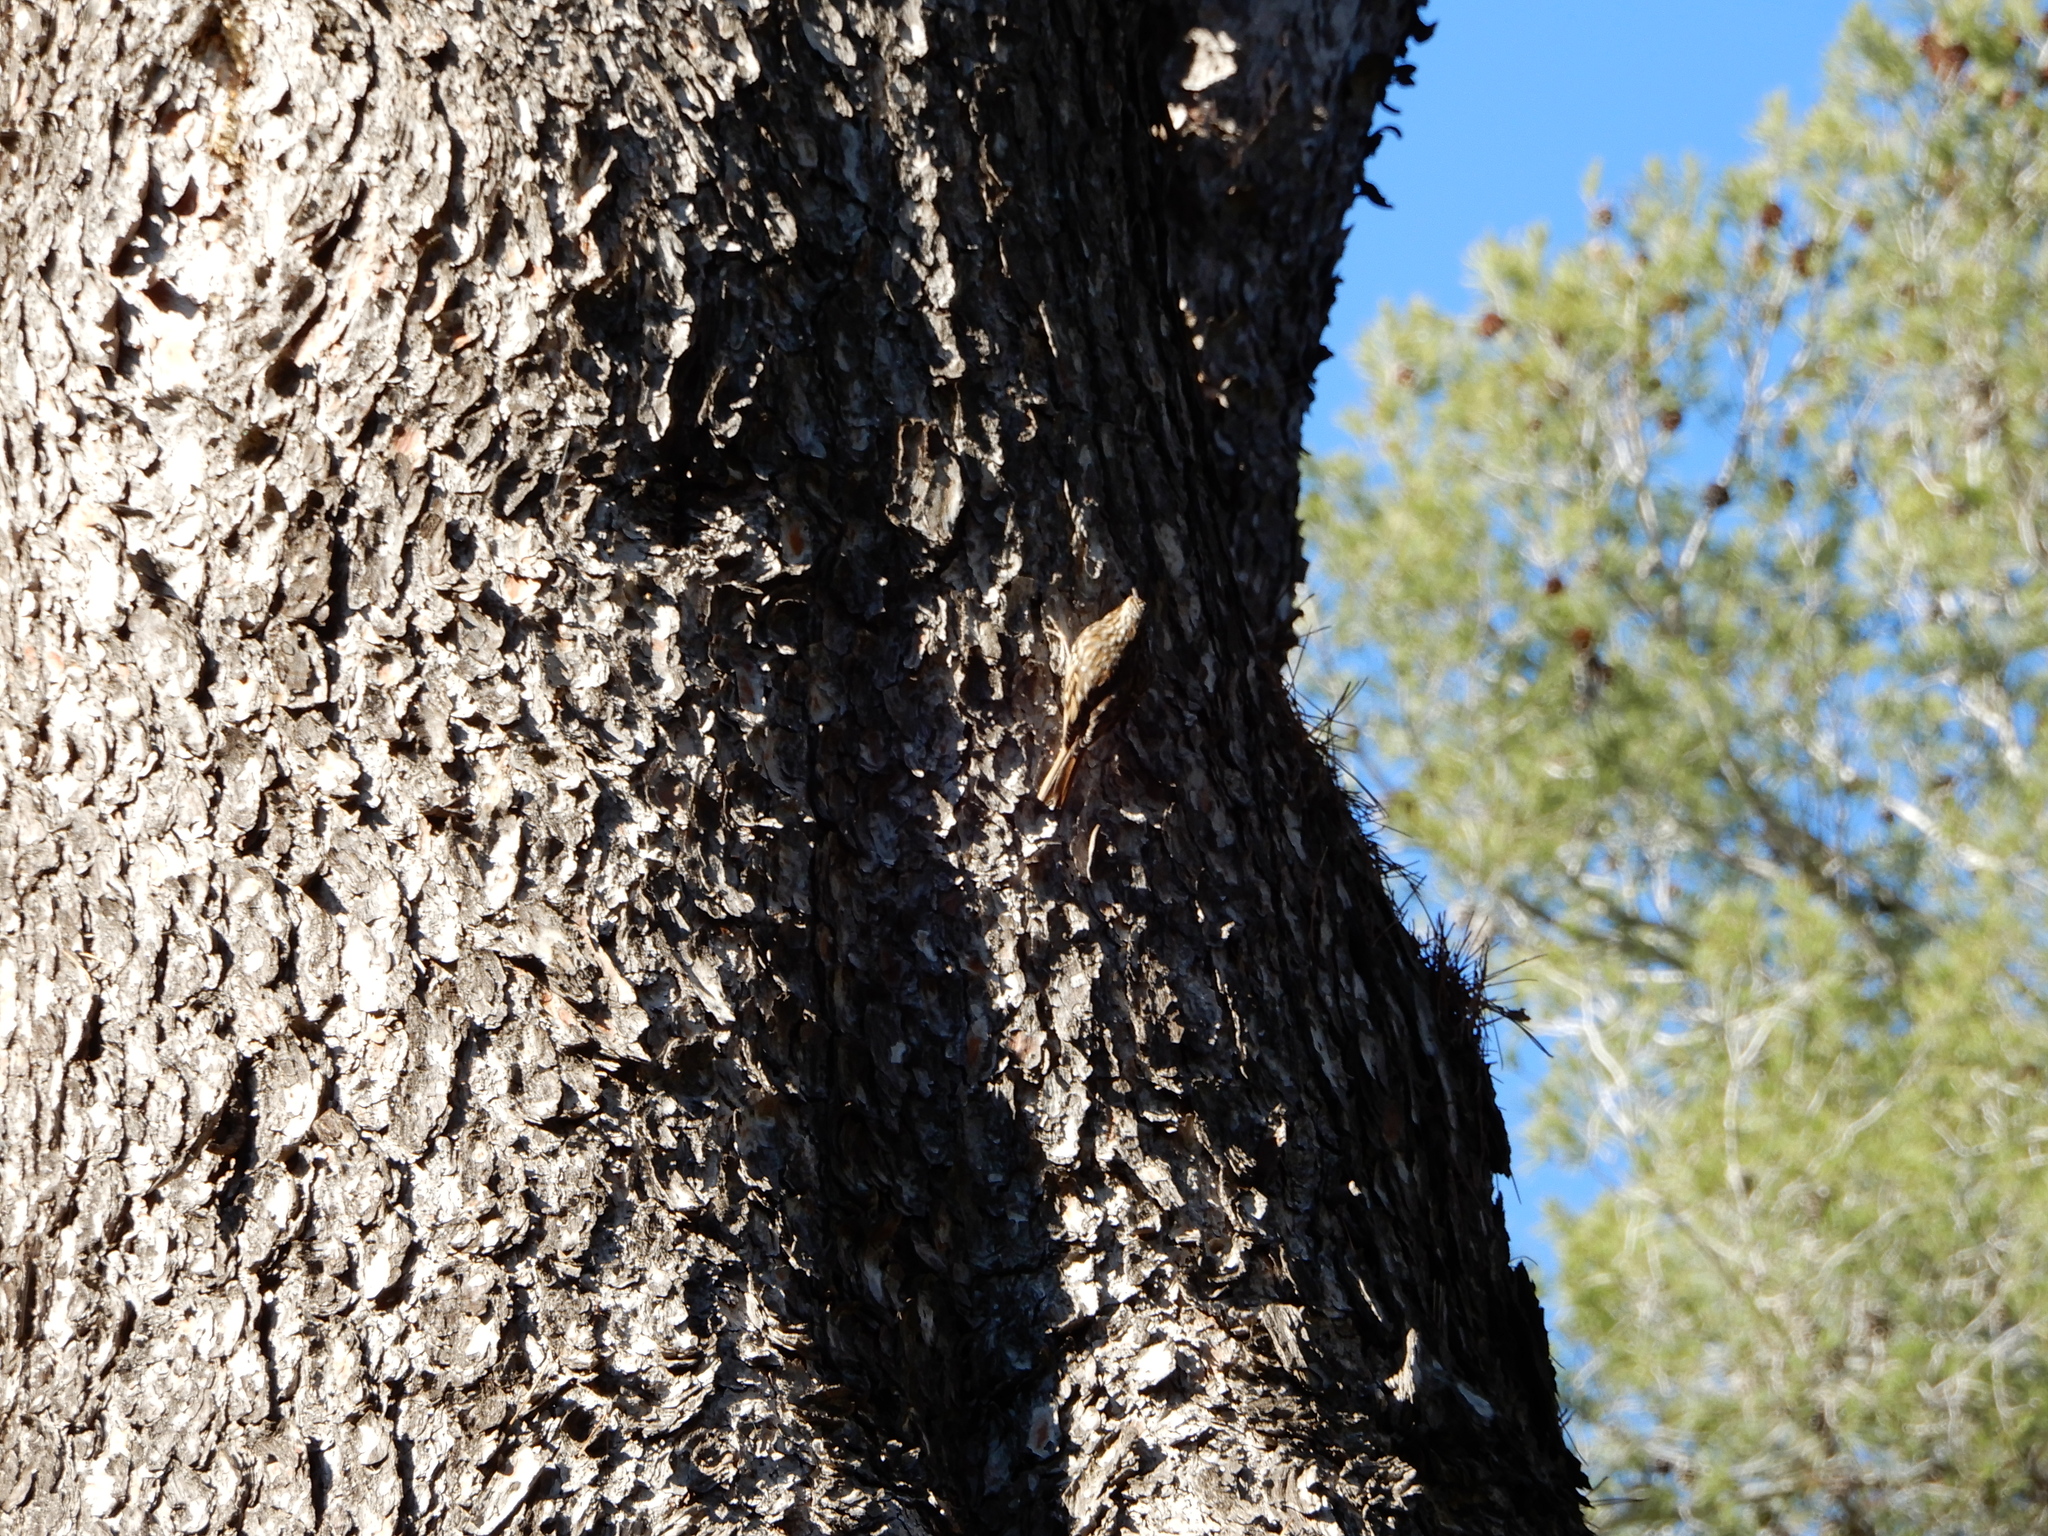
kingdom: Animalia
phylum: Chordata
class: Aves
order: Passeriformes
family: Certhiidae
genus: Certhia
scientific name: Certhia brachydactyla
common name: Short-toed treecreeper
